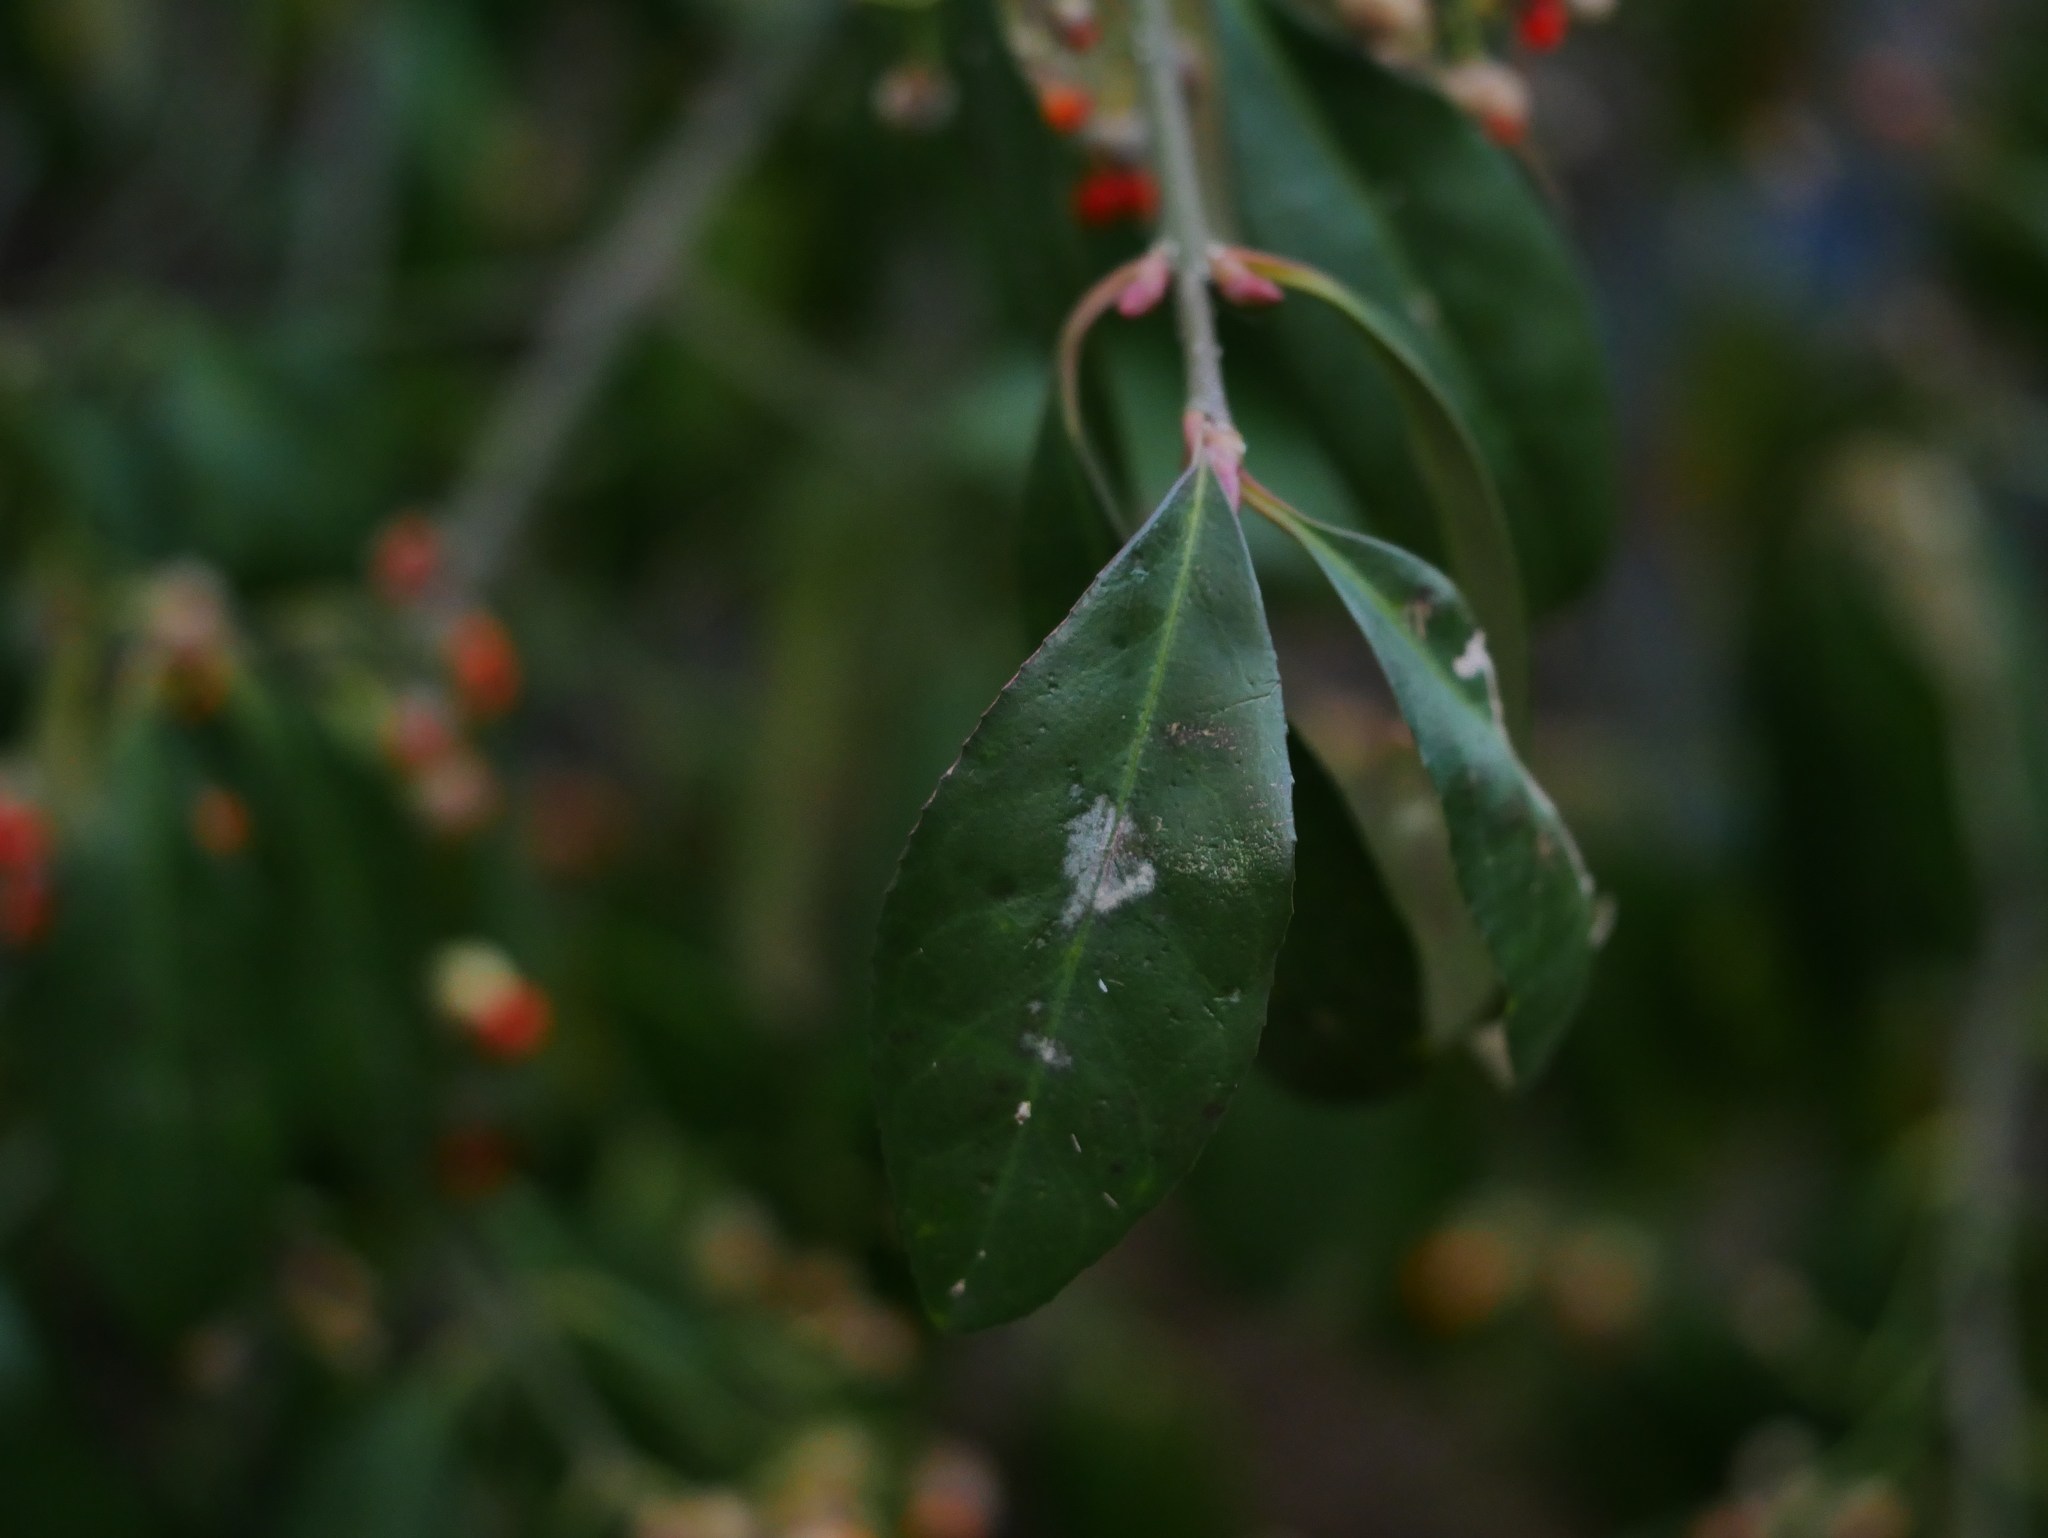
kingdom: Plantae
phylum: Tracheophyta
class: Magnoliopsida
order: Celastrales
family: Celastraceae
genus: Euonymus
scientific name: Euonymus europaeus
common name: Spindle
